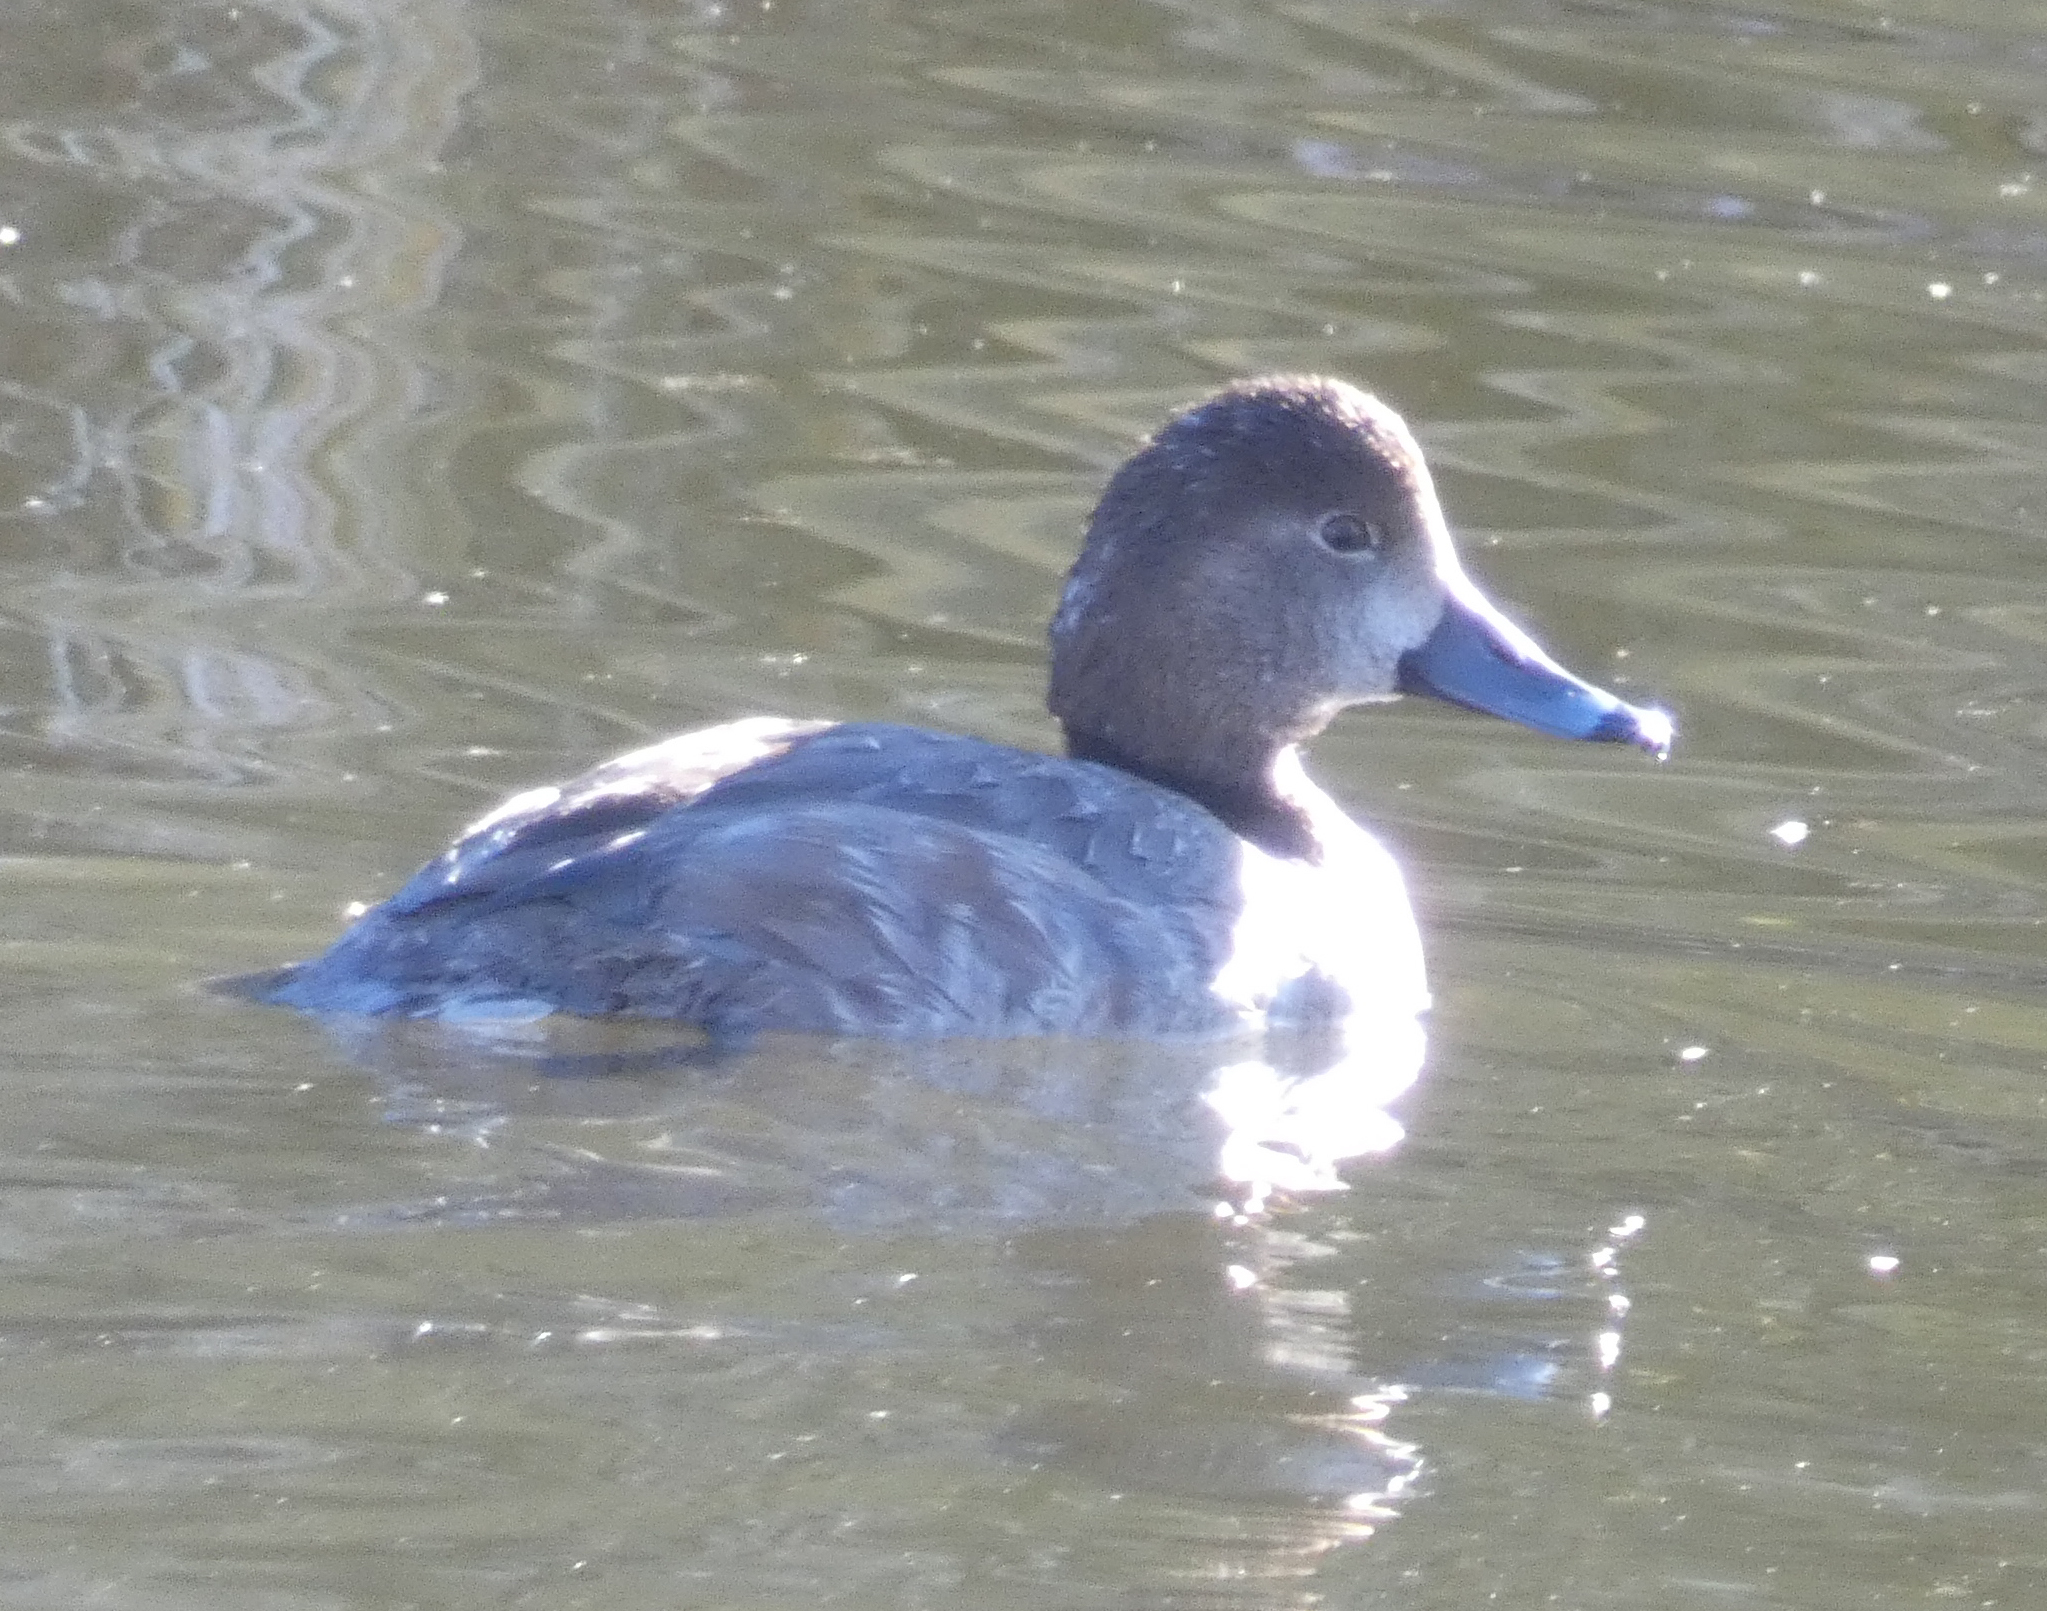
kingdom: Animalia
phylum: Chordata
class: Aves
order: Anseriformes
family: Anatidae
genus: Aythya
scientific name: Aythya americana
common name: Redhead
